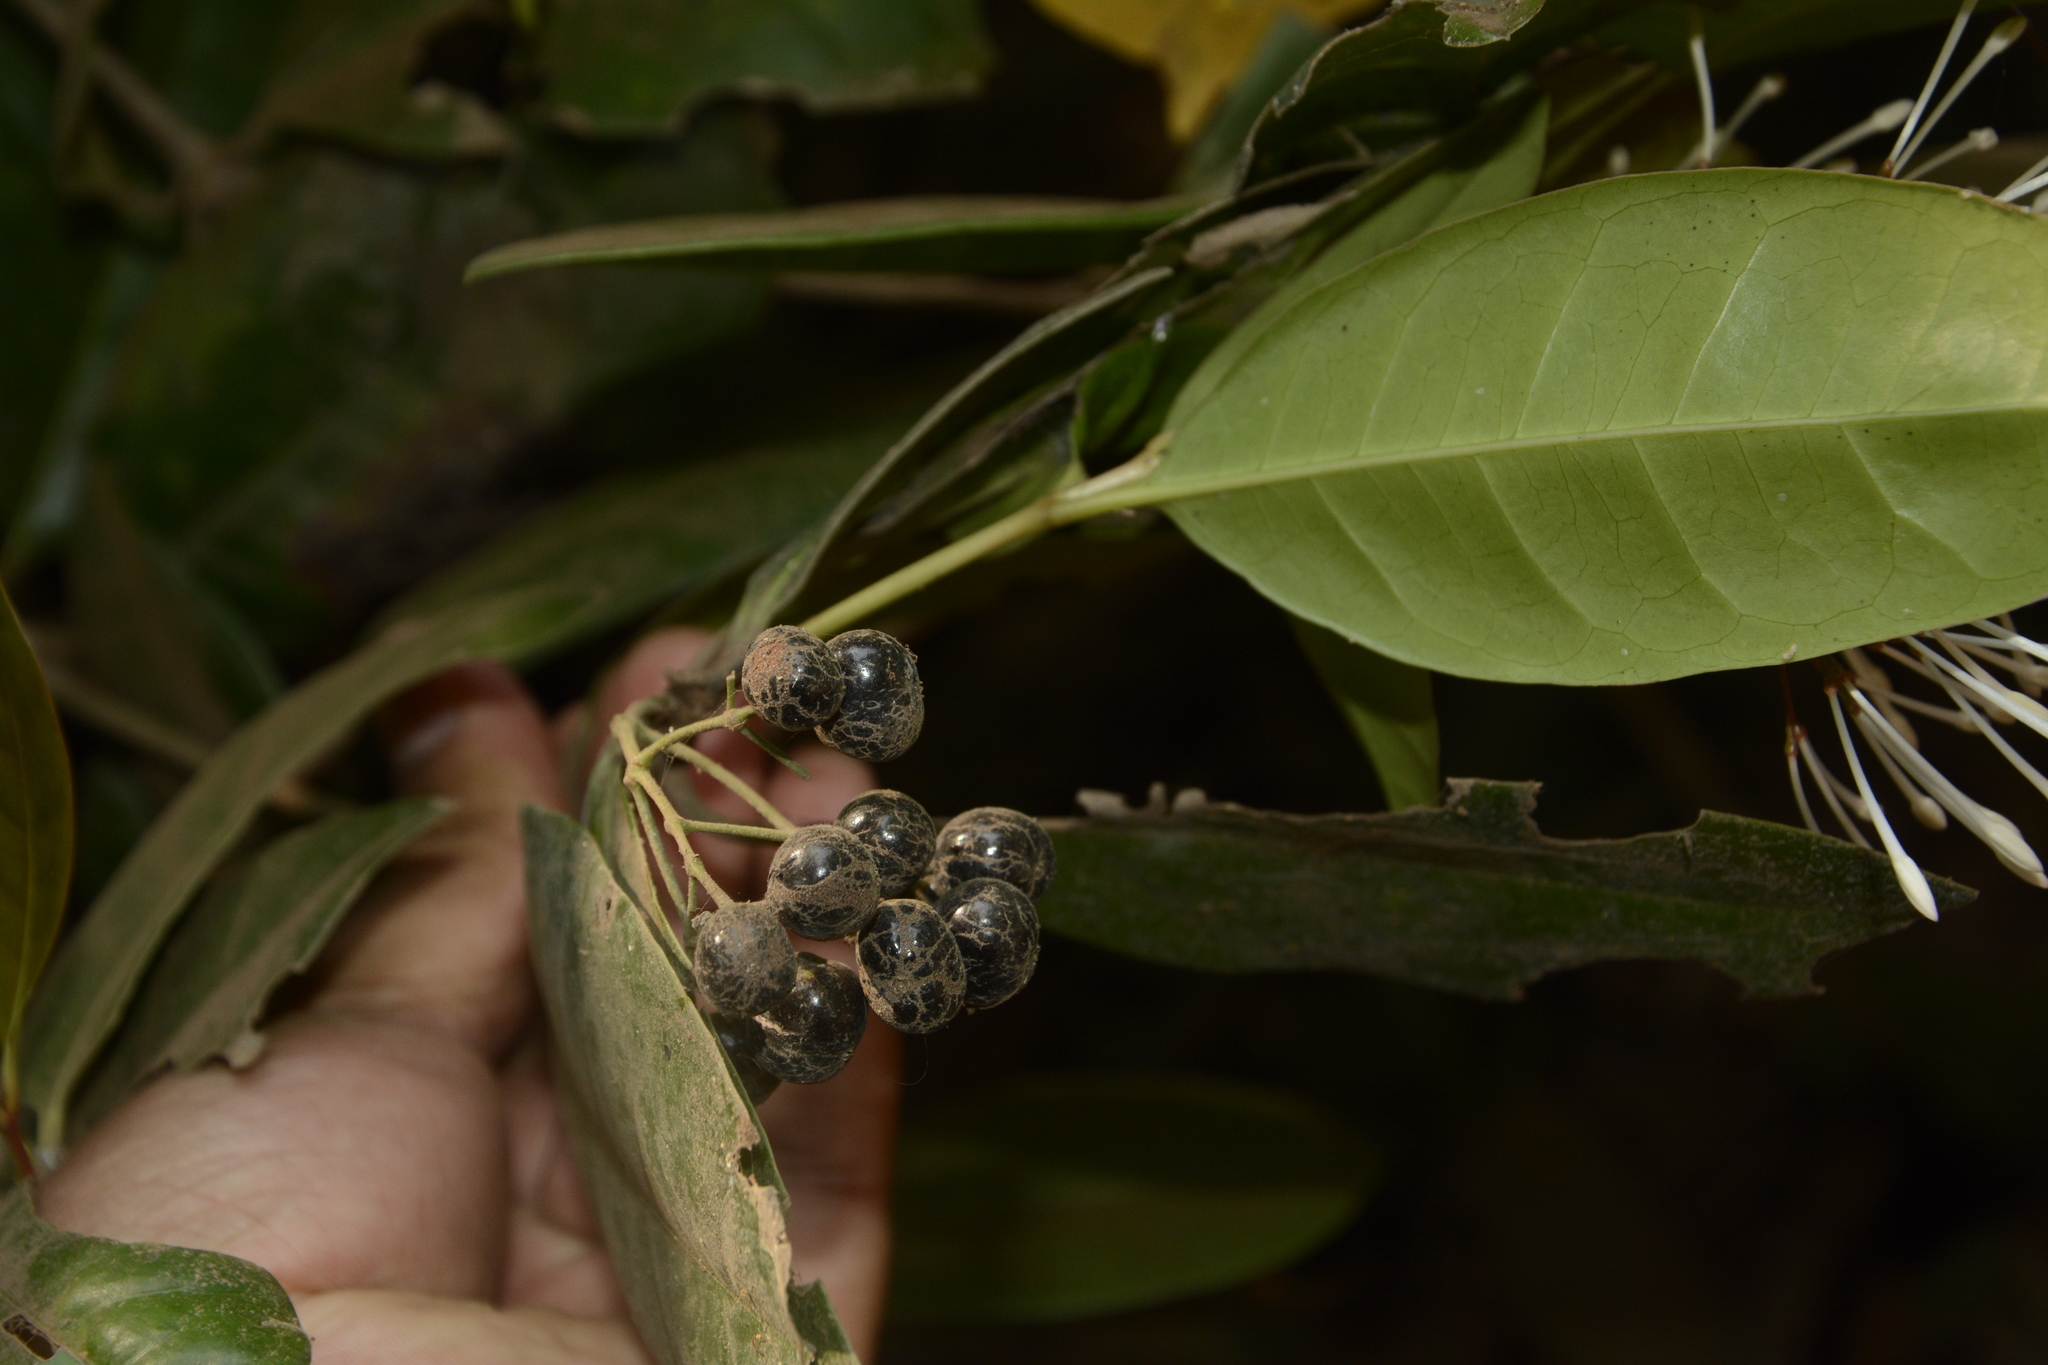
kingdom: Plantae
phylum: Tracheophyta
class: Magnoliopsida
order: Gentianales
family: Rubiaceae
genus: Ixora
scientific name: Ixora nigricans
